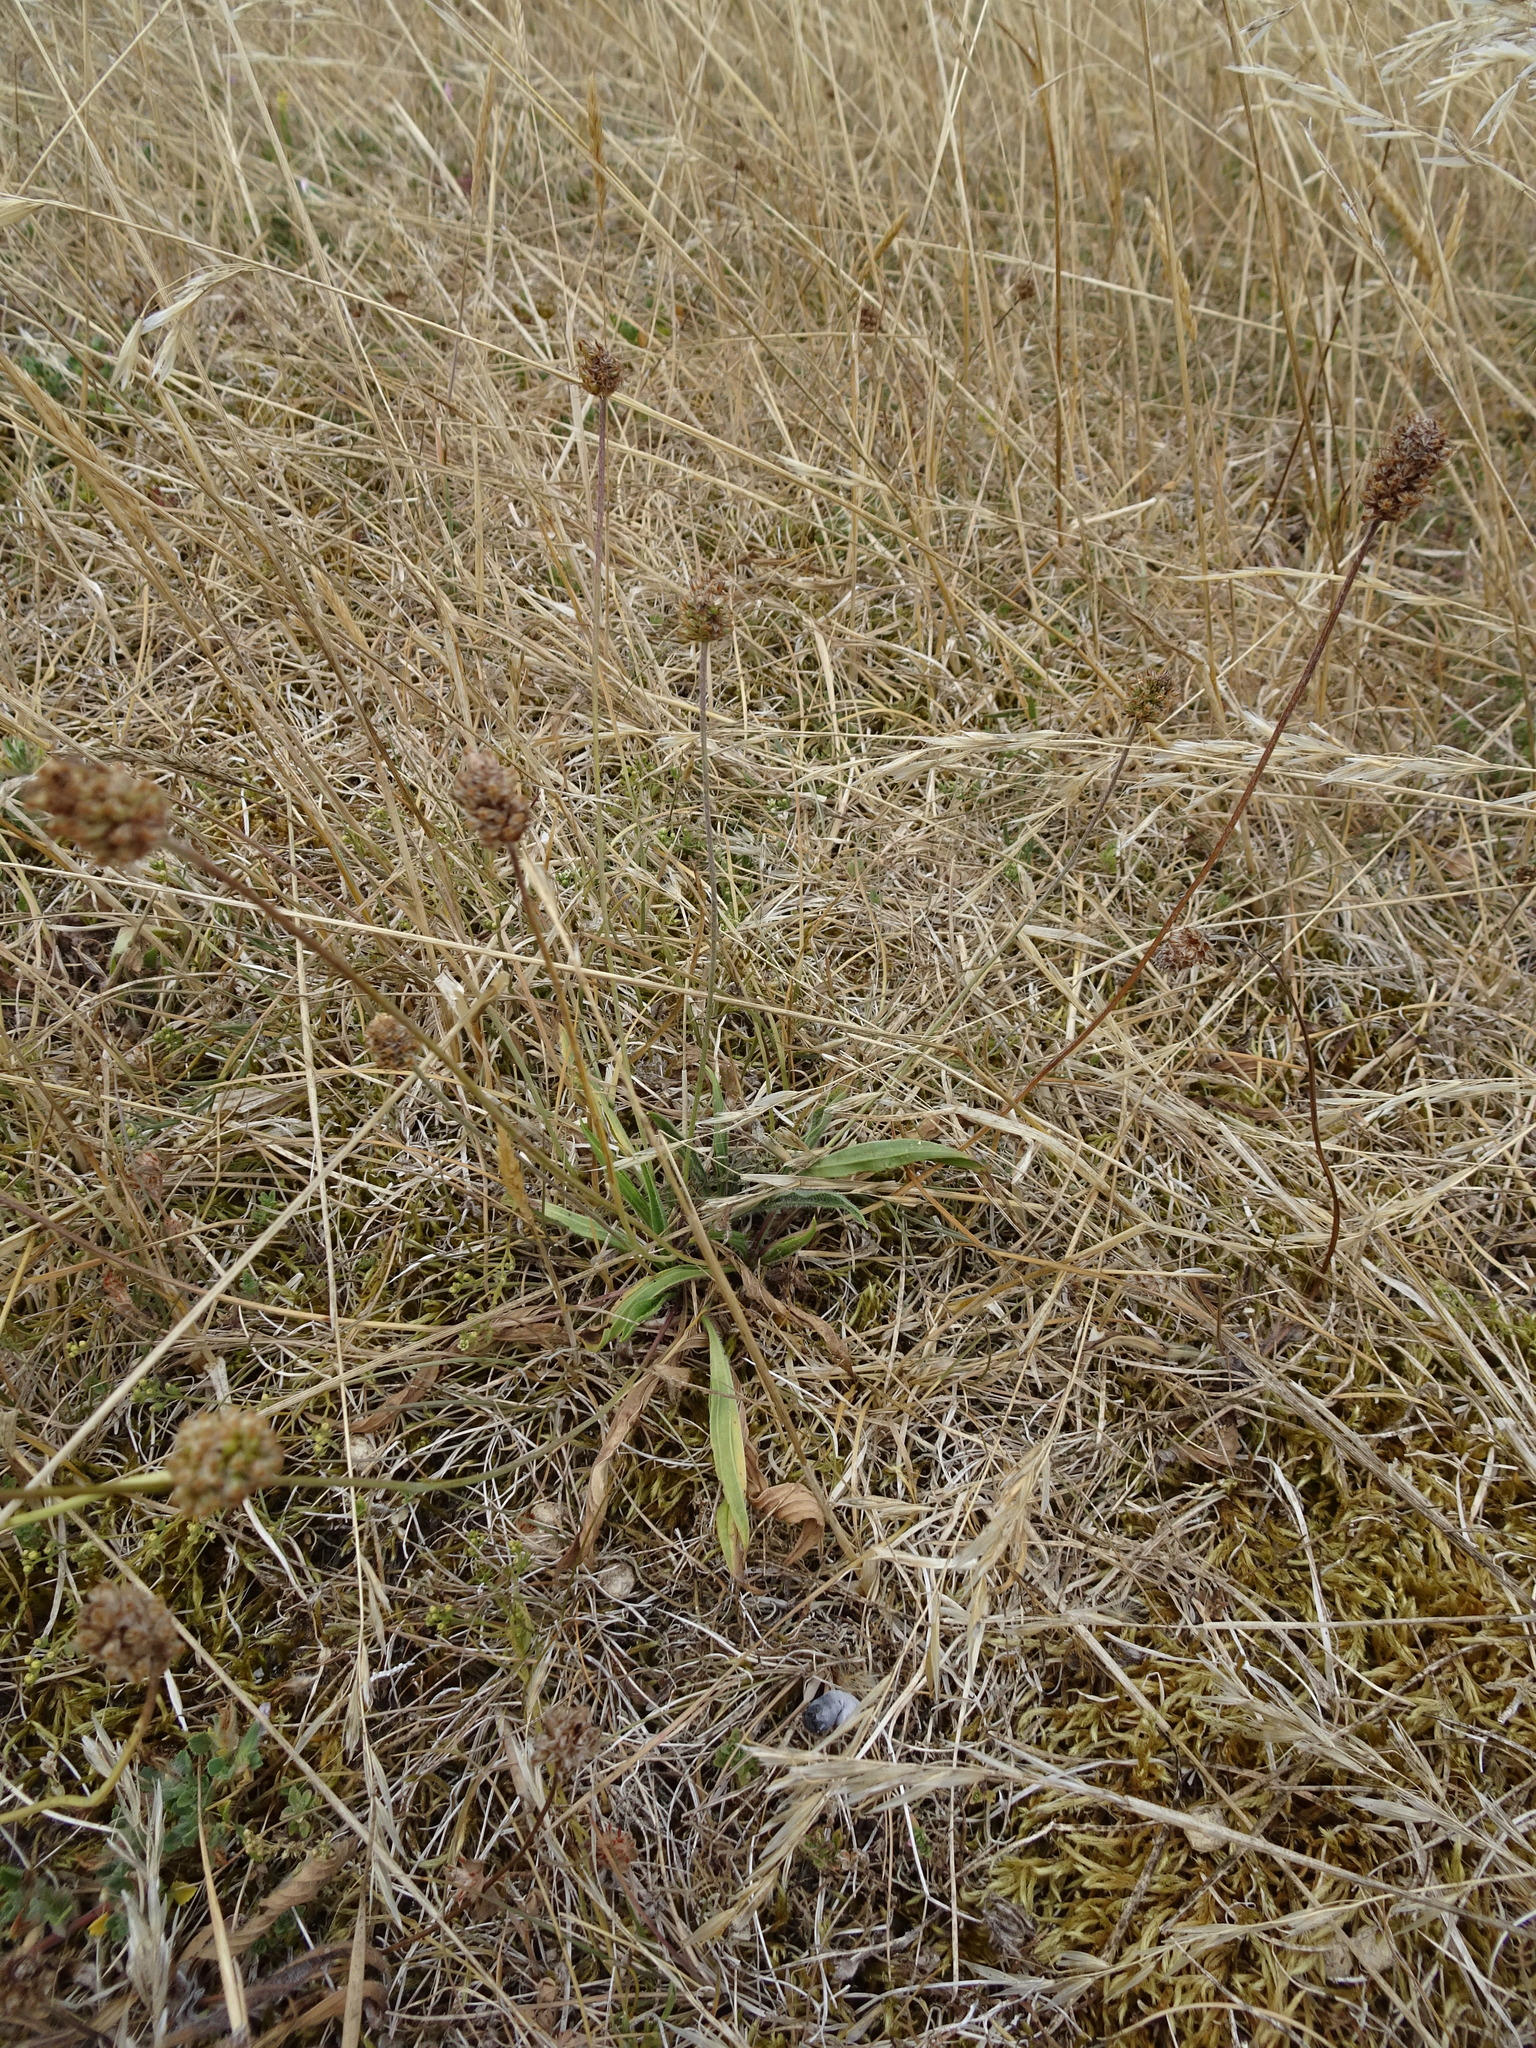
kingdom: Plantae
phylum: Tracheophyta
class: Magnoliopsida
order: Lamiales
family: Plantaginaceae
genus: Plantago
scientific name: Plantago lanceolata
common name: Ribwort plantain
